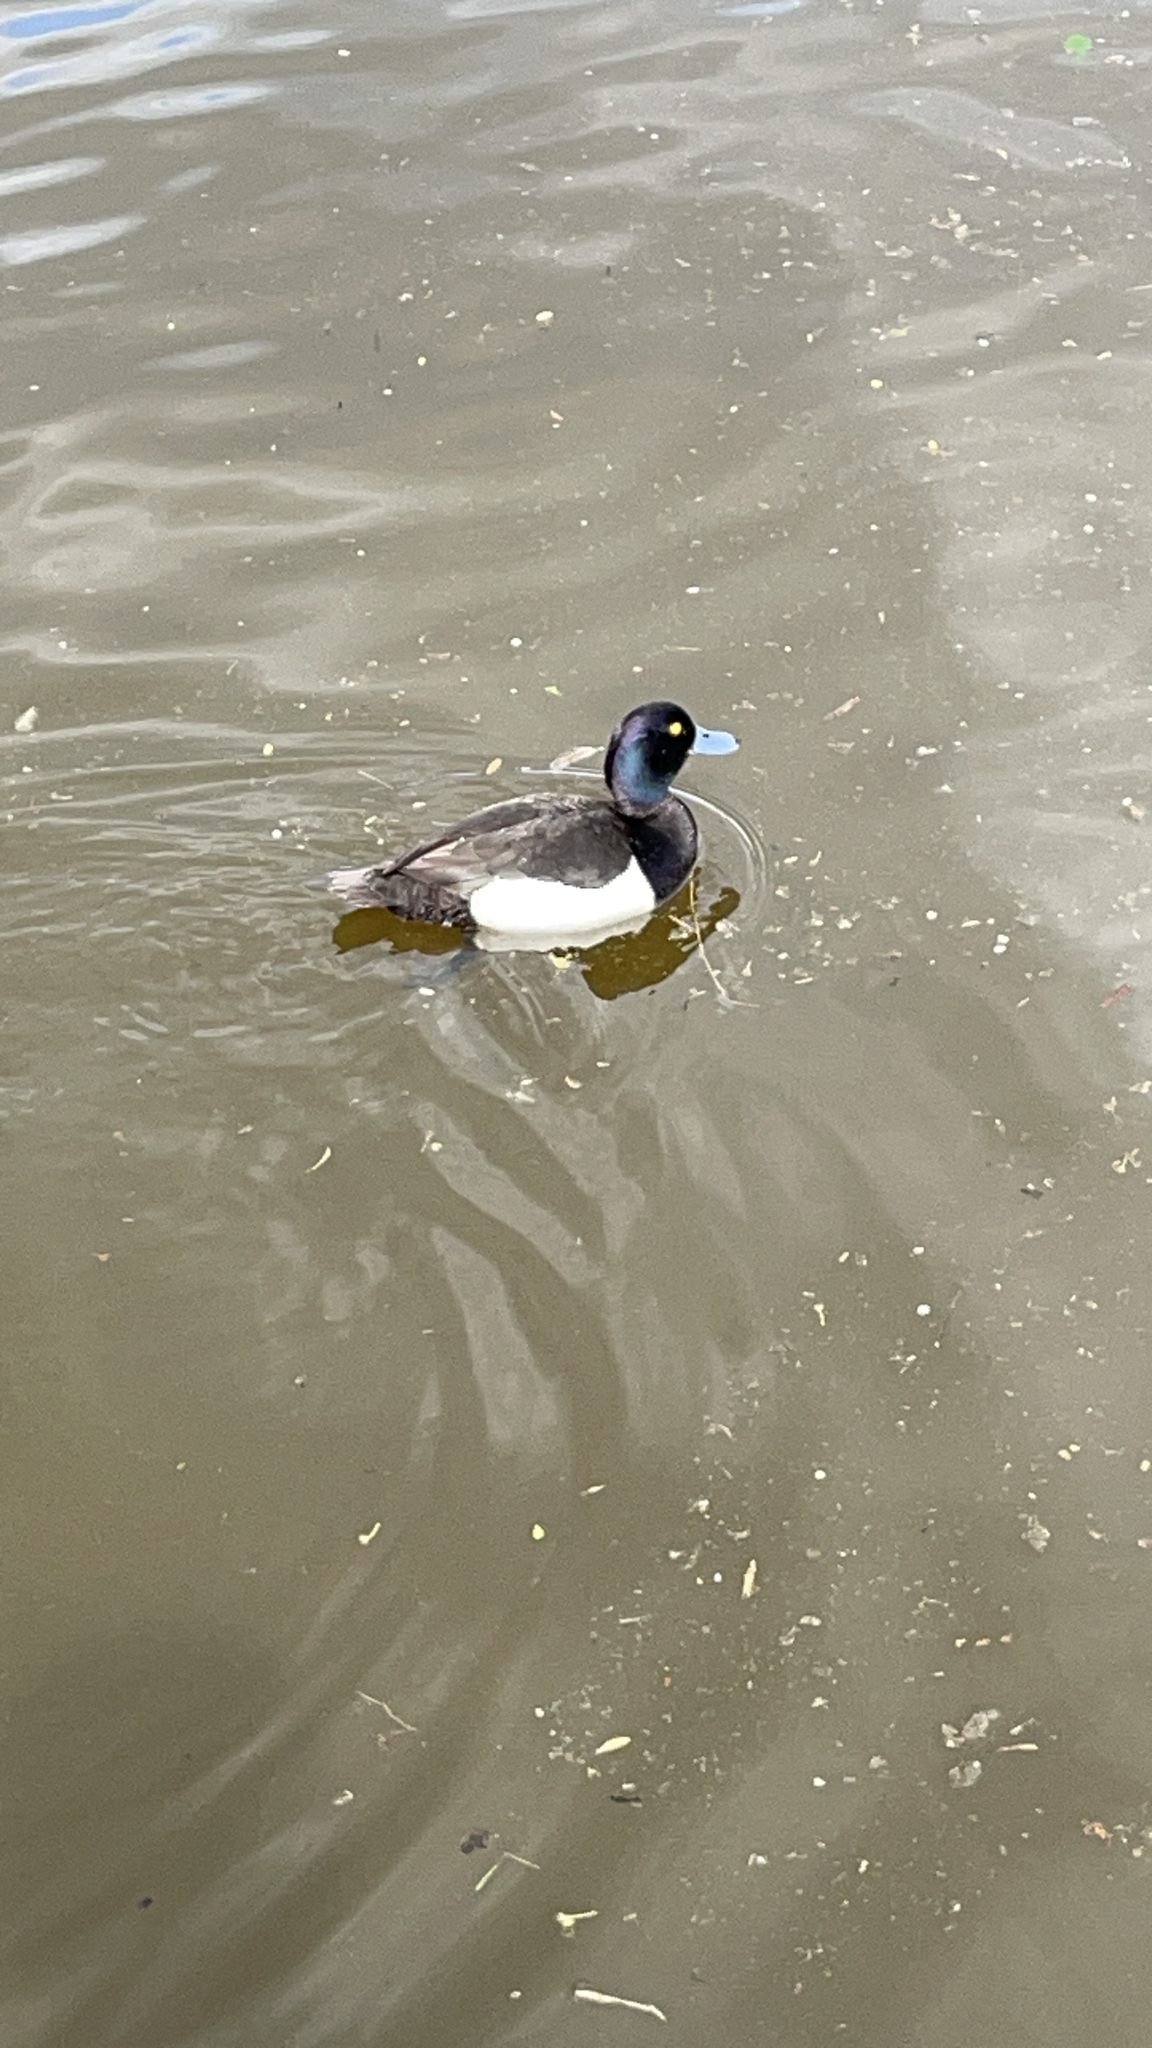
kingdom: Animalia
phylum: Chordata
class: Aves
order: Anseriformes
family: Anatidae
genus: Aythya
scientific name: Aythya fuligula
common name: Tufted duck
